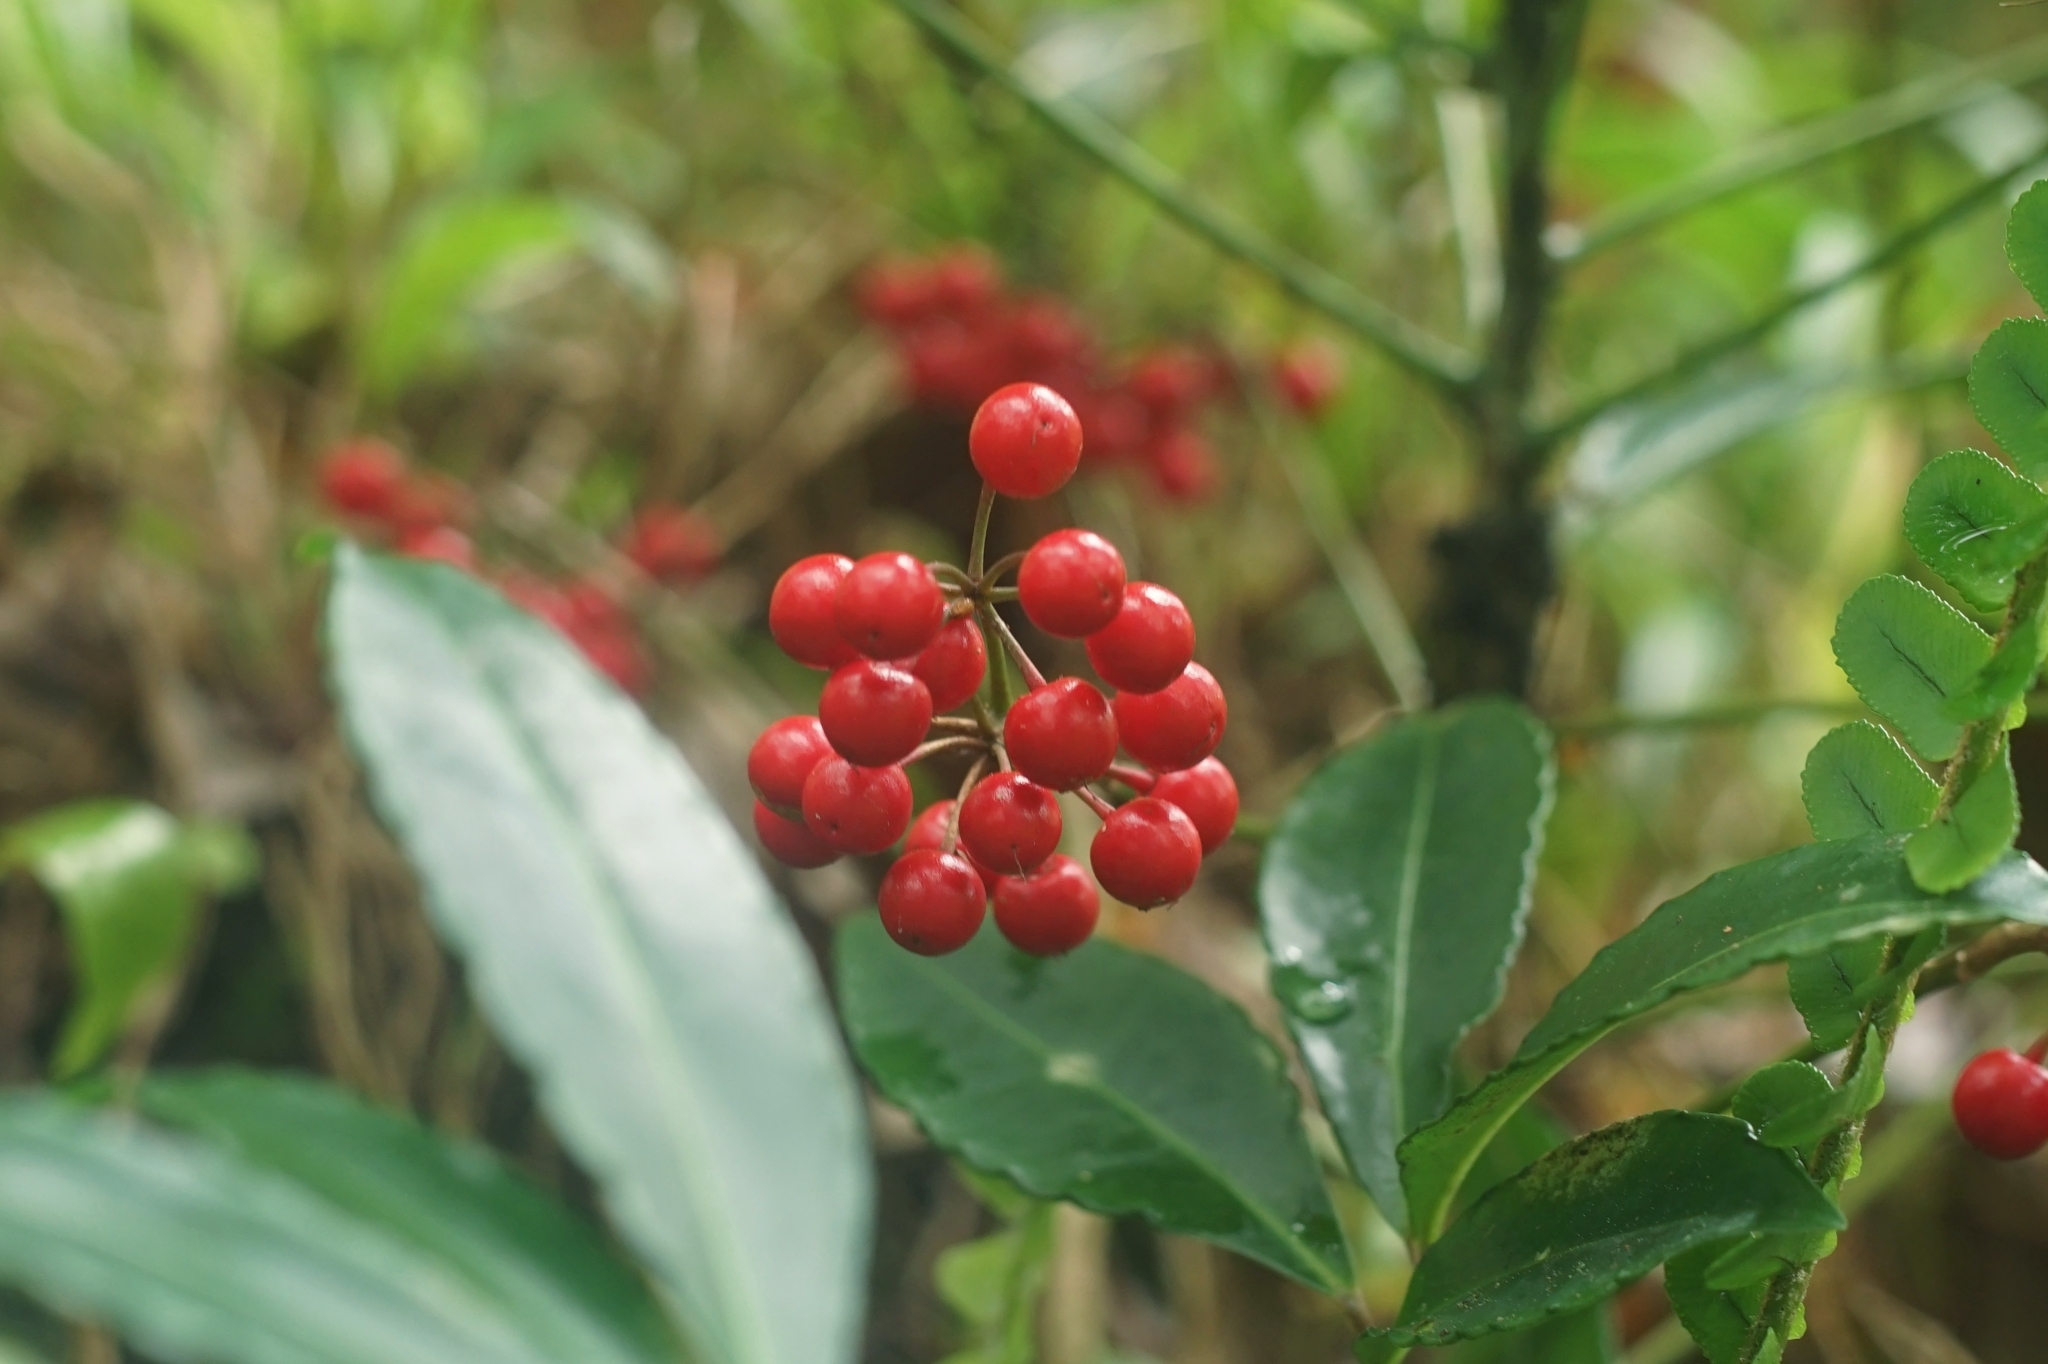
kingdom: Plantae
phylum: Tracheophyta
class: Magnoliopsida
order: Ericales
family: Primulaceae
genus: Ardisia
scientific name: Ardisia crenata
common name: Hen's eyes
